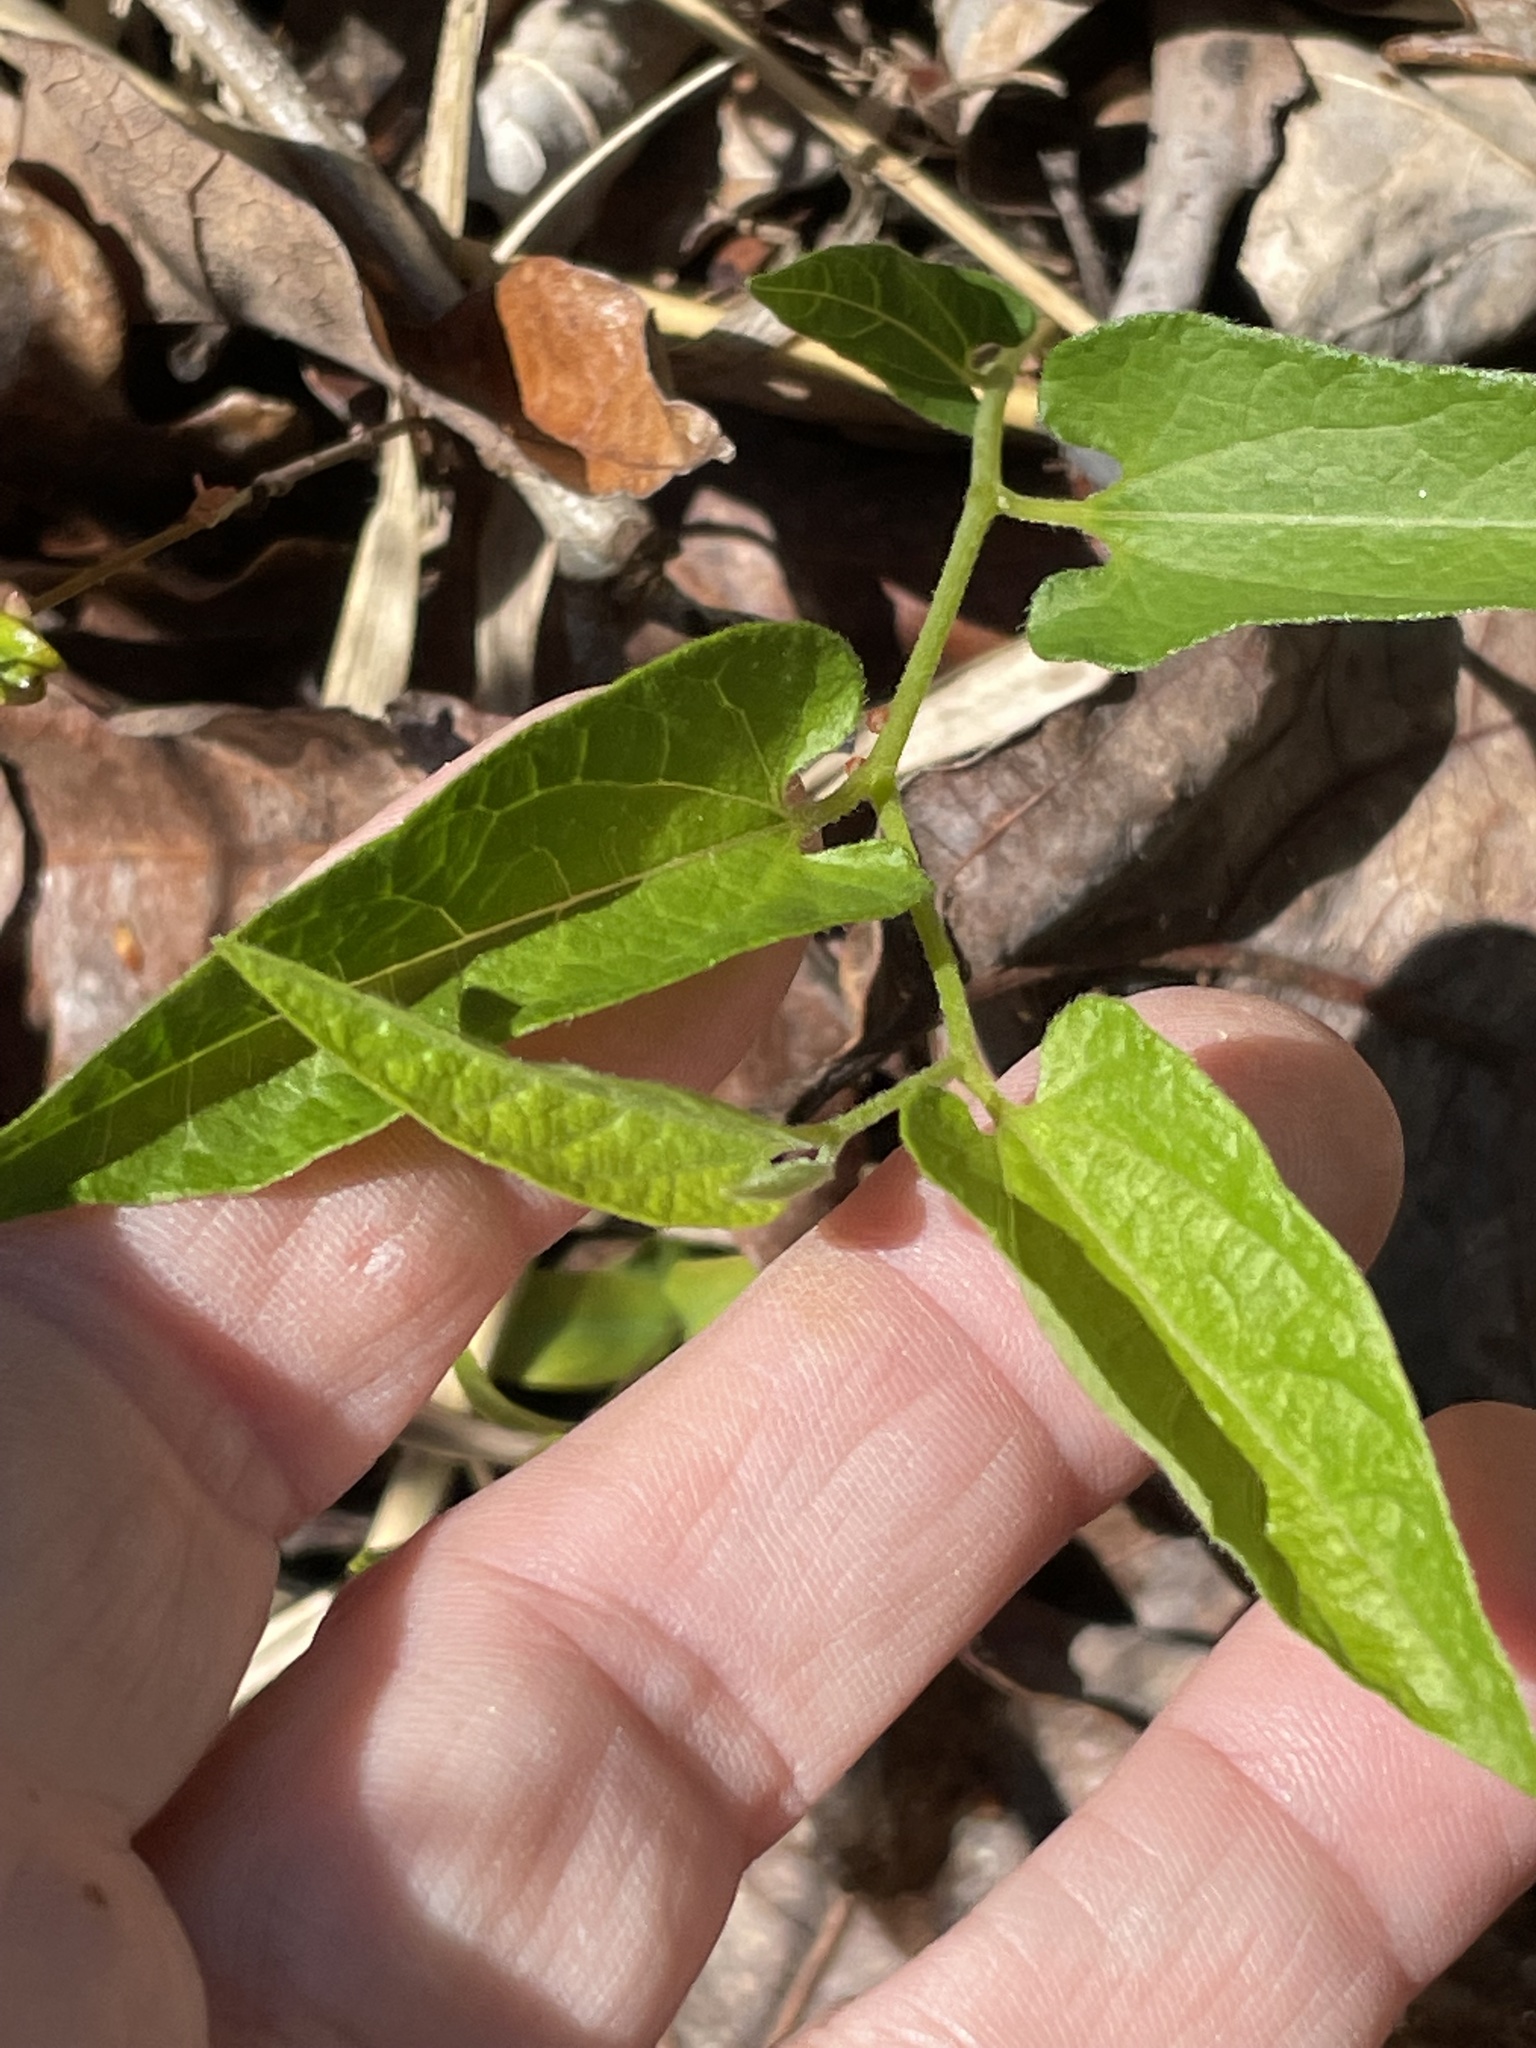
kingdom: Plantae
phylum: Tracheophyta
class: Magnoliopsida
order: Piperales
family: Aristolochiaceae
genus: Endodeca
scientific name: Endodeca serpentaria
